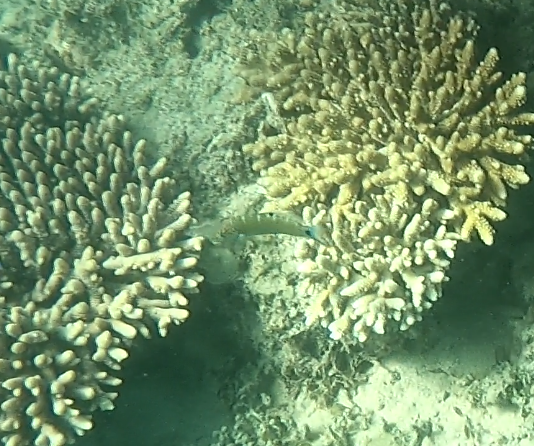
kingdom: Animalia
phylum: Chordata
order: Perciformes
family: Labridae
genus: Thalassoma
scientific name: Thalassoma lunare
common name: Blue wrasse
